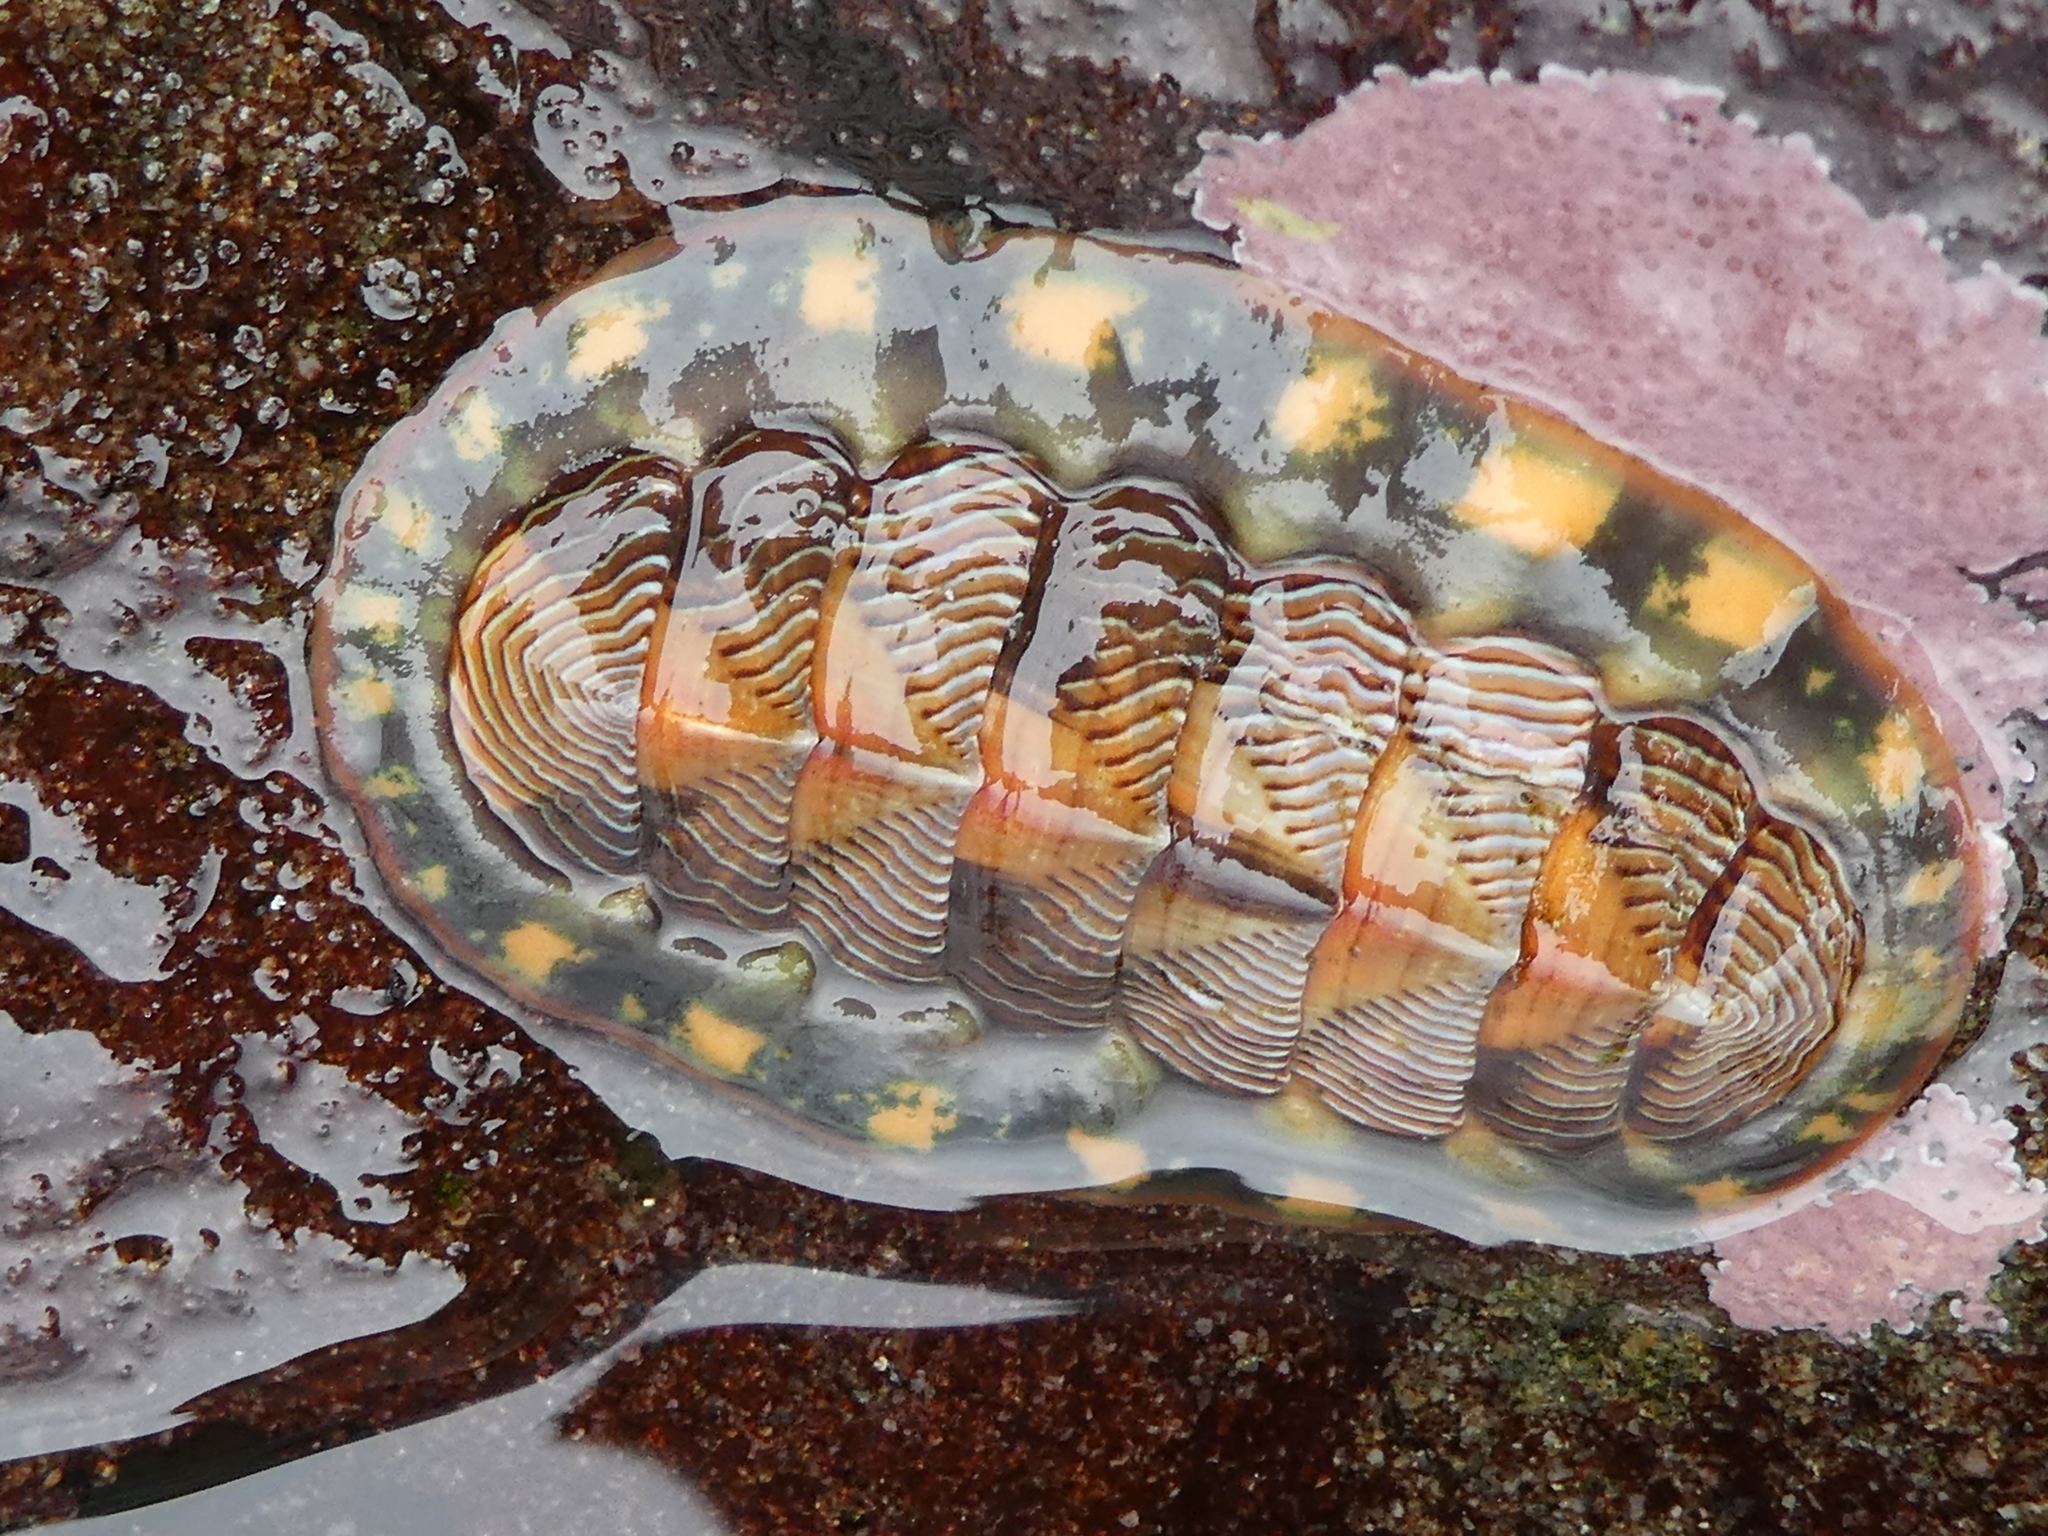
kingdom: Animalia
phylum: Mollusca
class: Polyplacophora
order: Chitonida
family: Tonicellidae
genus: Tonicella
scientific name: Tonicella lineata
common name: Lined chiton
